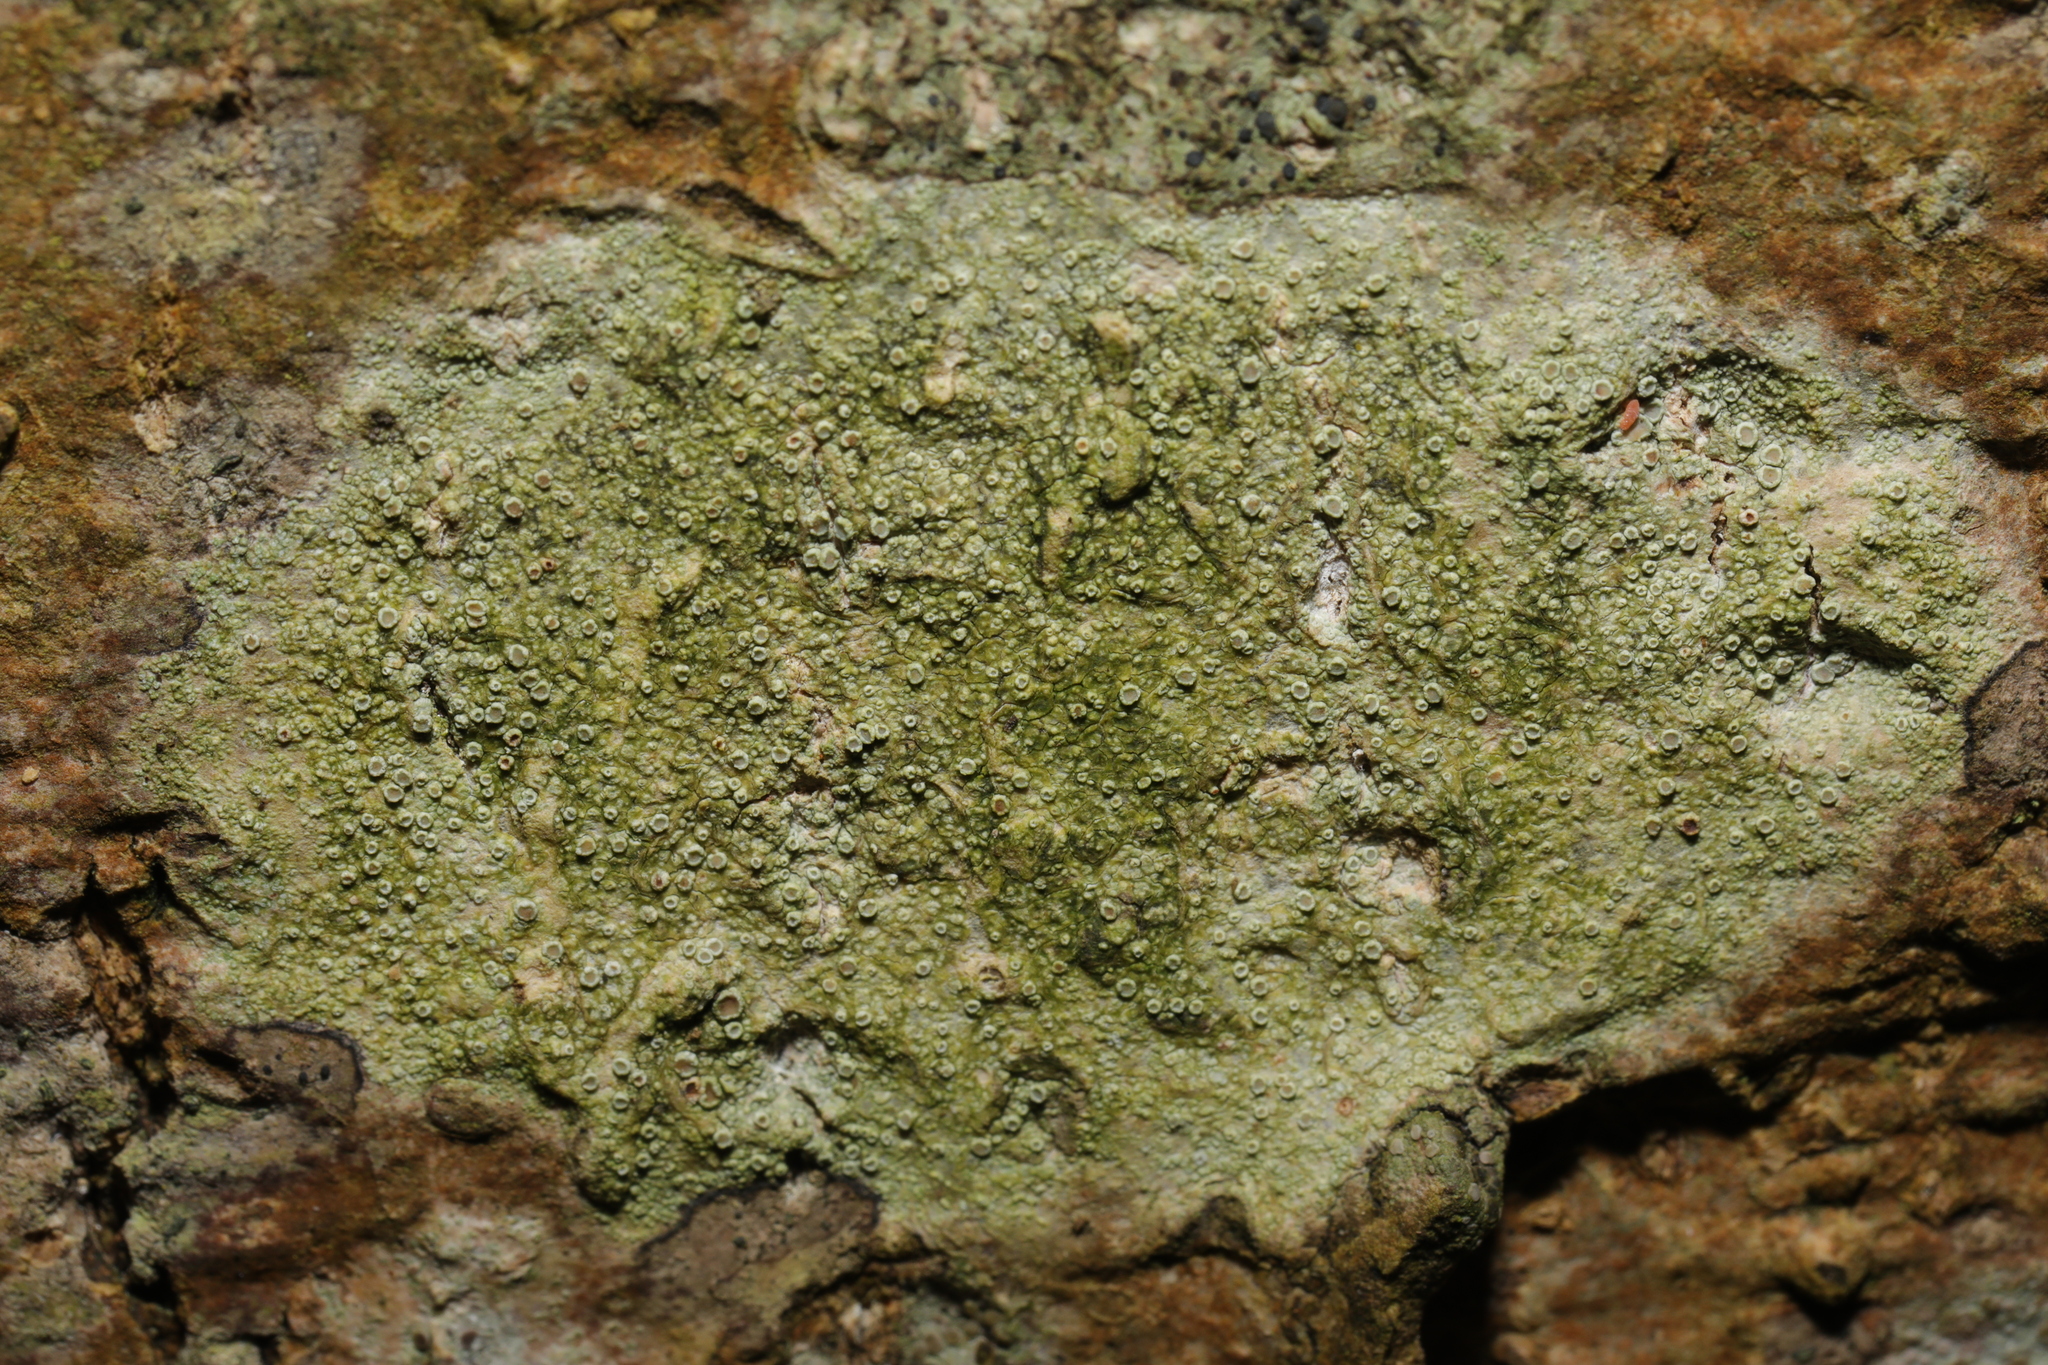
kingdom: Fungi
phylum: Ascomycota
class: Lecanoromycetes
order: Lecanorales
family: Lecanoraceae
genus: Lecanora
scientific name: Lecanora
